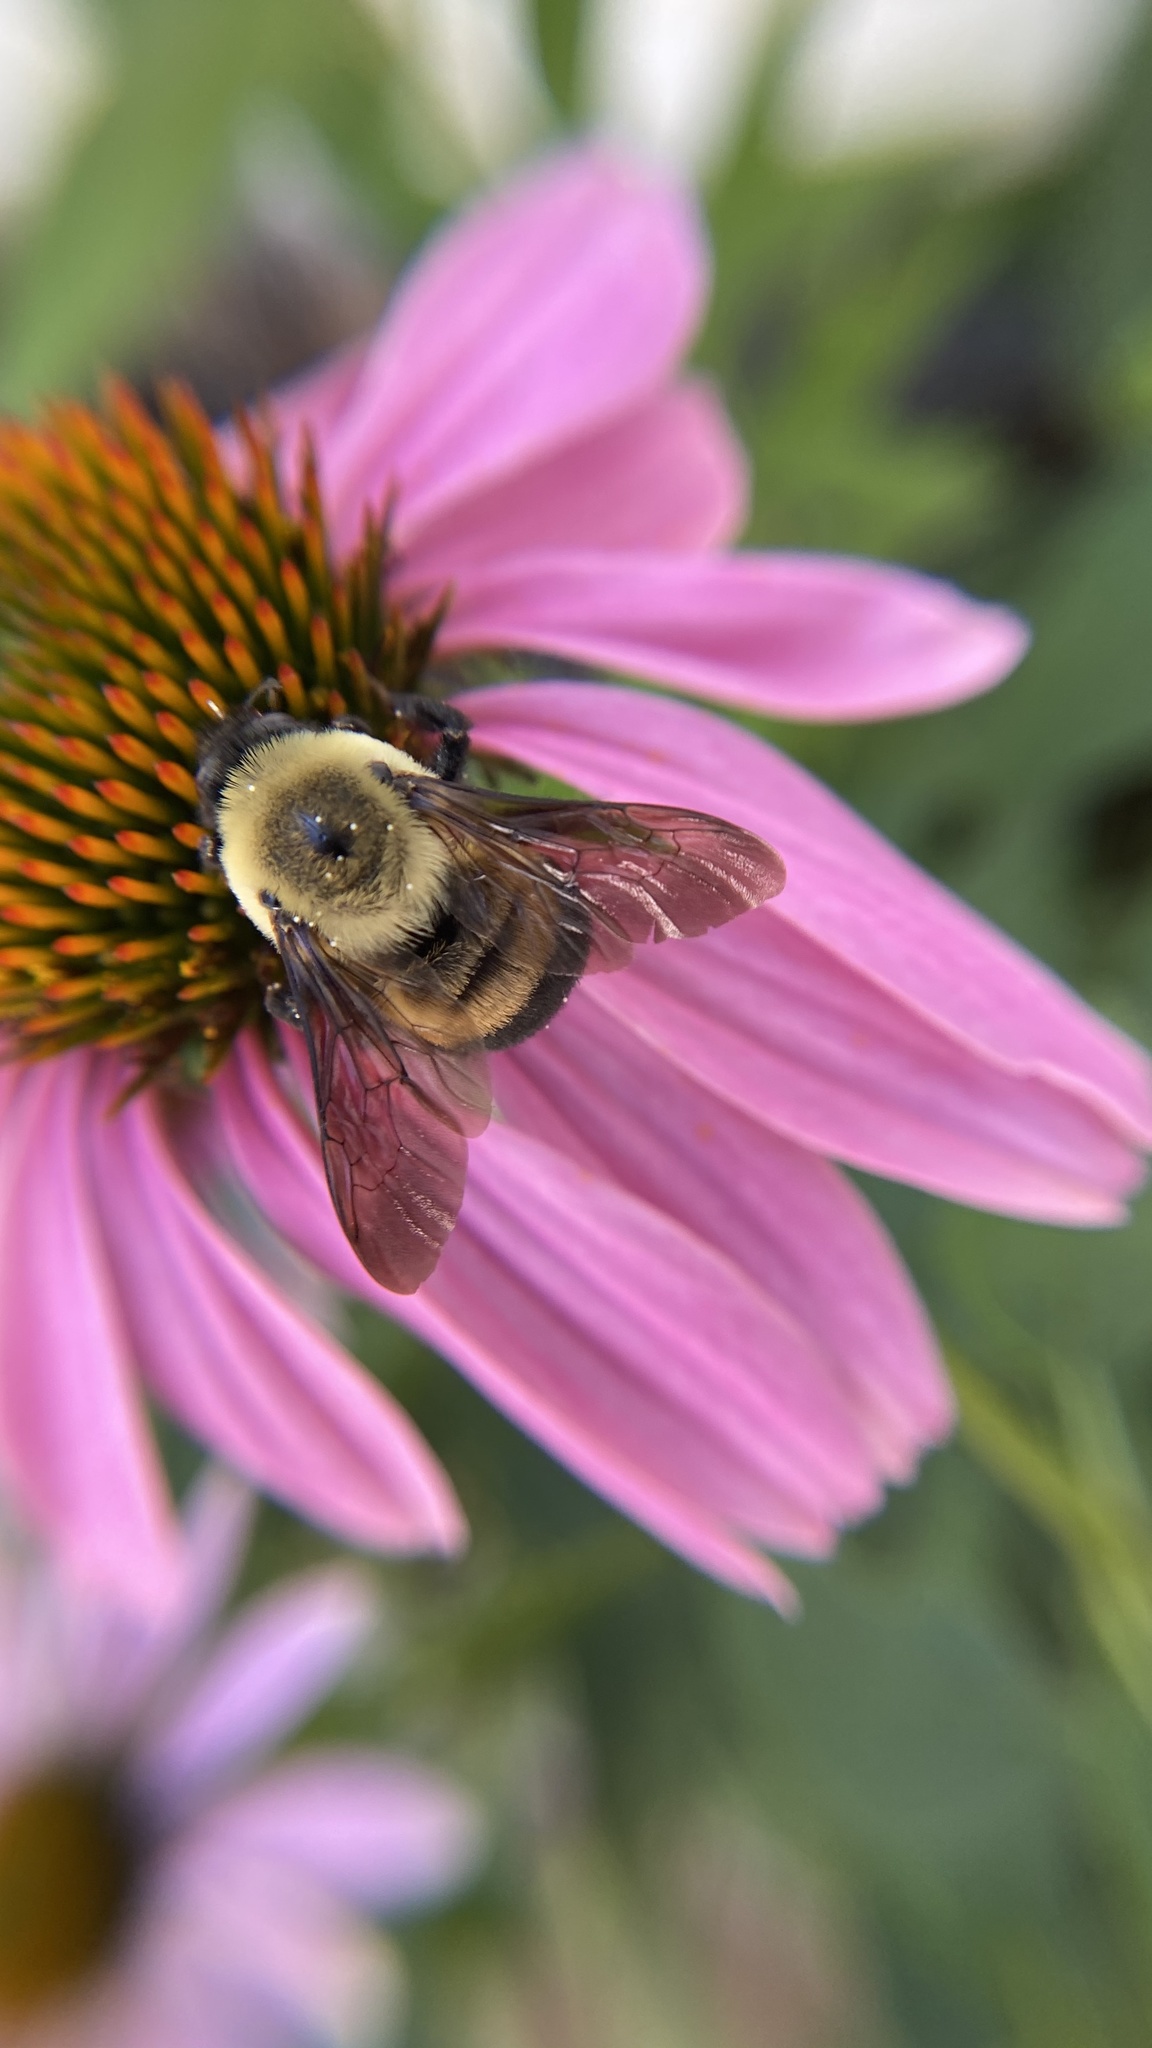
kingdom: Animalia
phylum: Arthropoda
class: Insecta
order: Hymenoptera
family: Apidae
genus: Bombus
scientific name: Bombus griseocollis
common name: Brown-belted bumble bee
